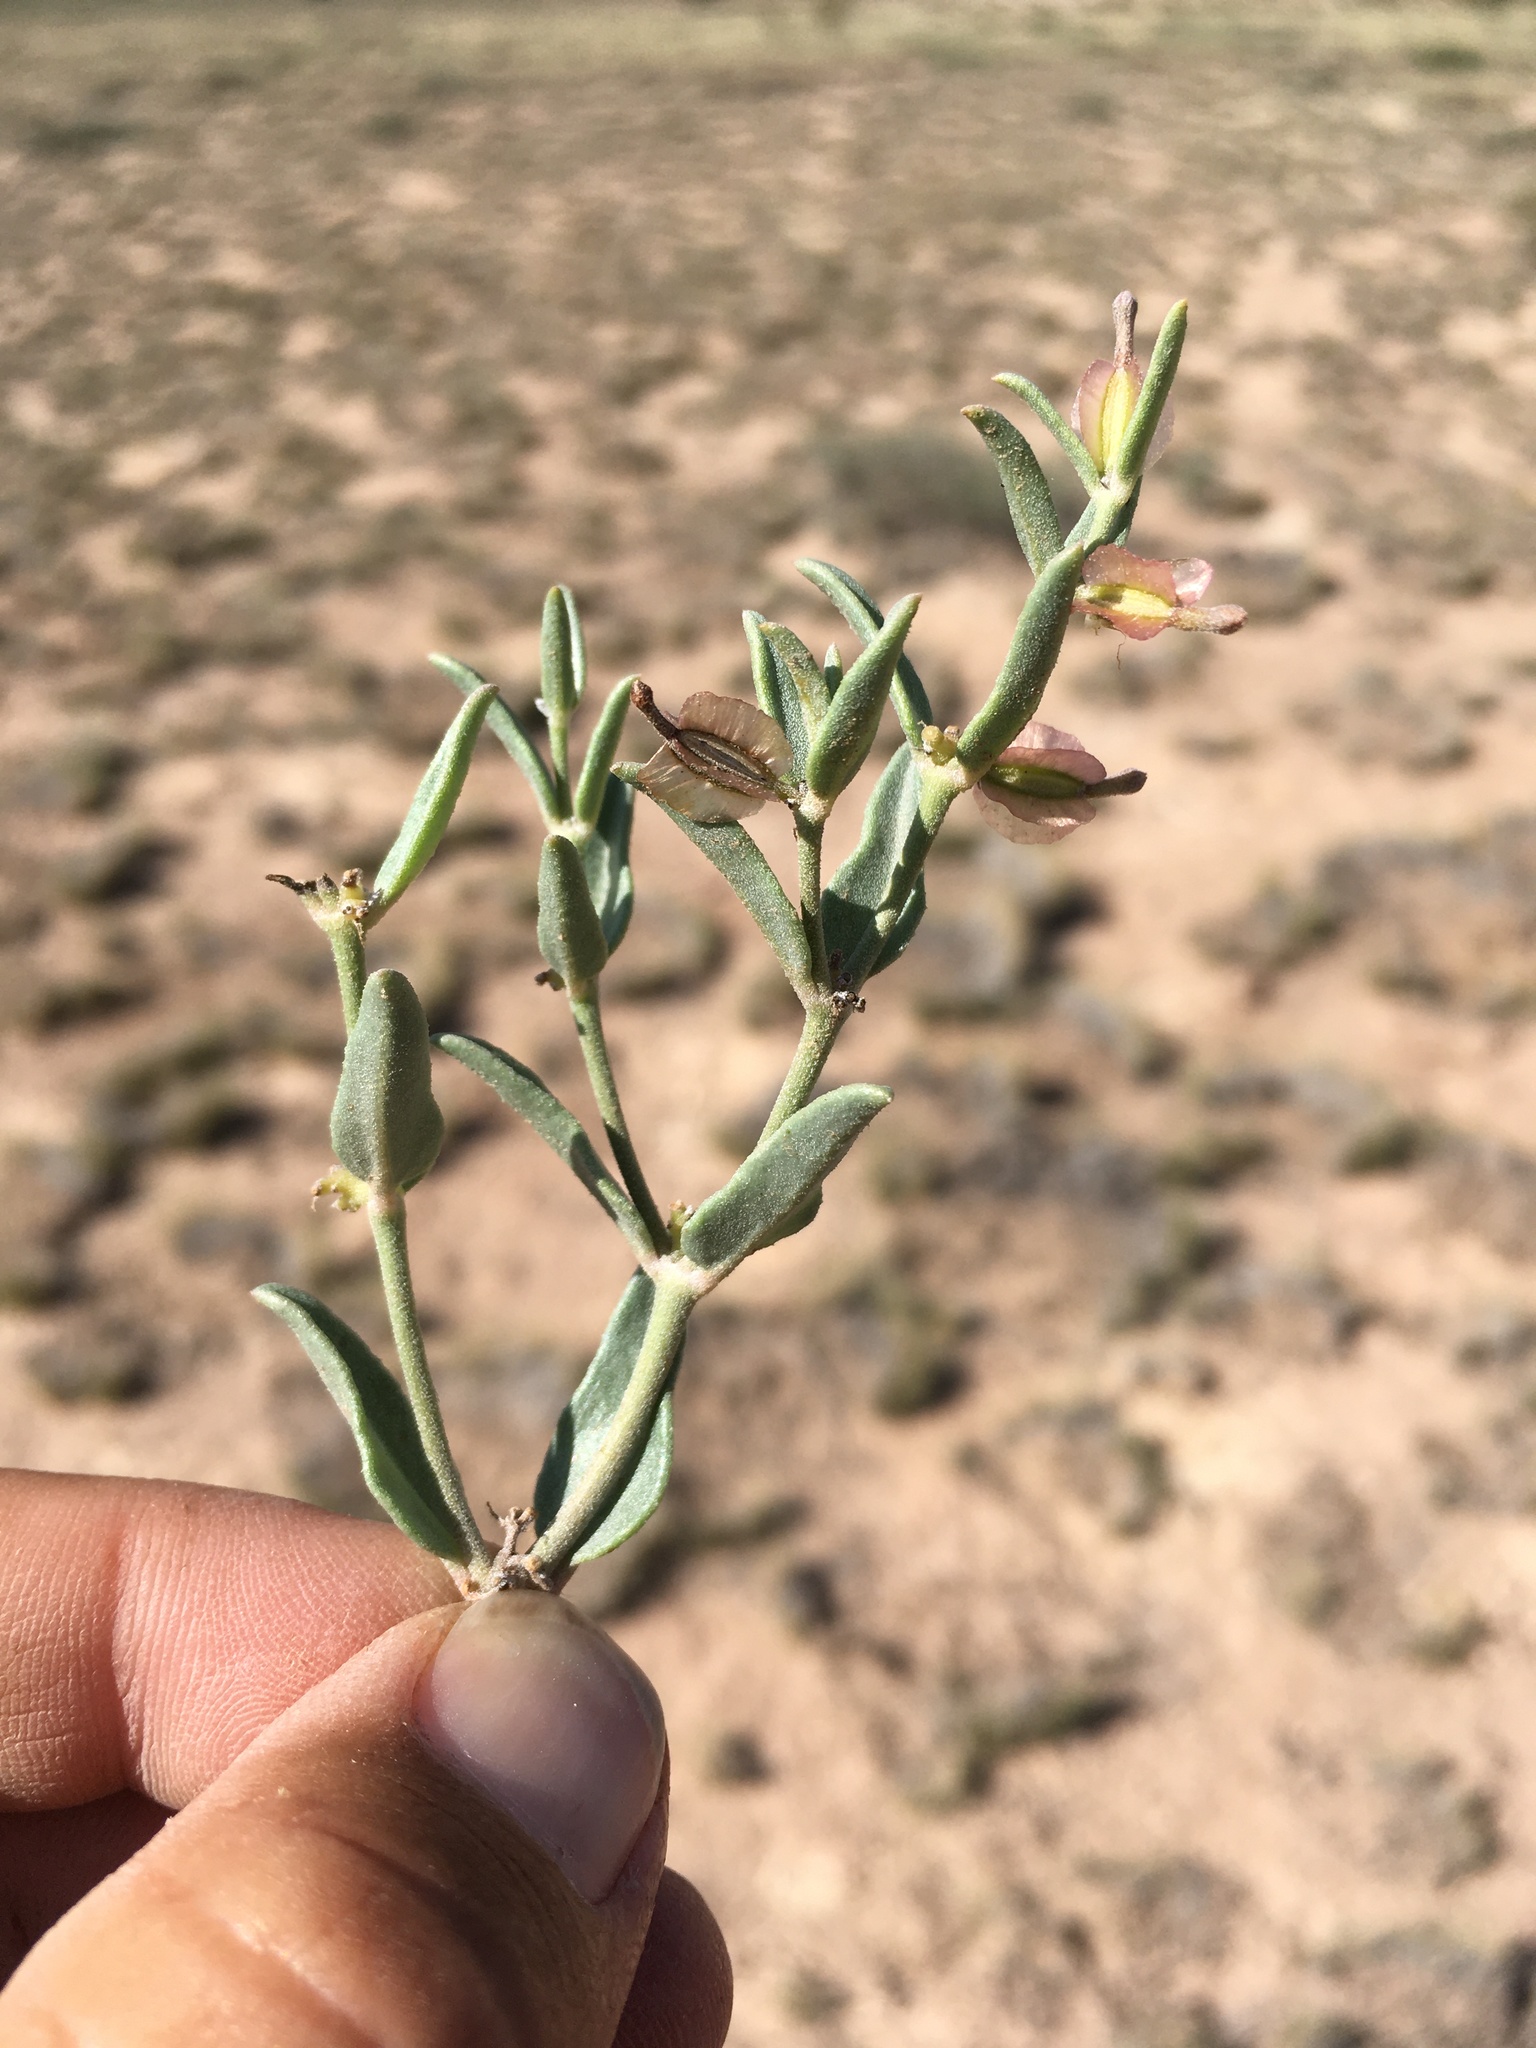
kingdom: Plantae
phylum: Tracheophyta
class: Magnoliopsida
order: Caryophyllales
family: Nyctaginaceae
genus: Acleisanthes
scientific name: Acleisanthes lanceolata
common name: Gypsum moonpod
